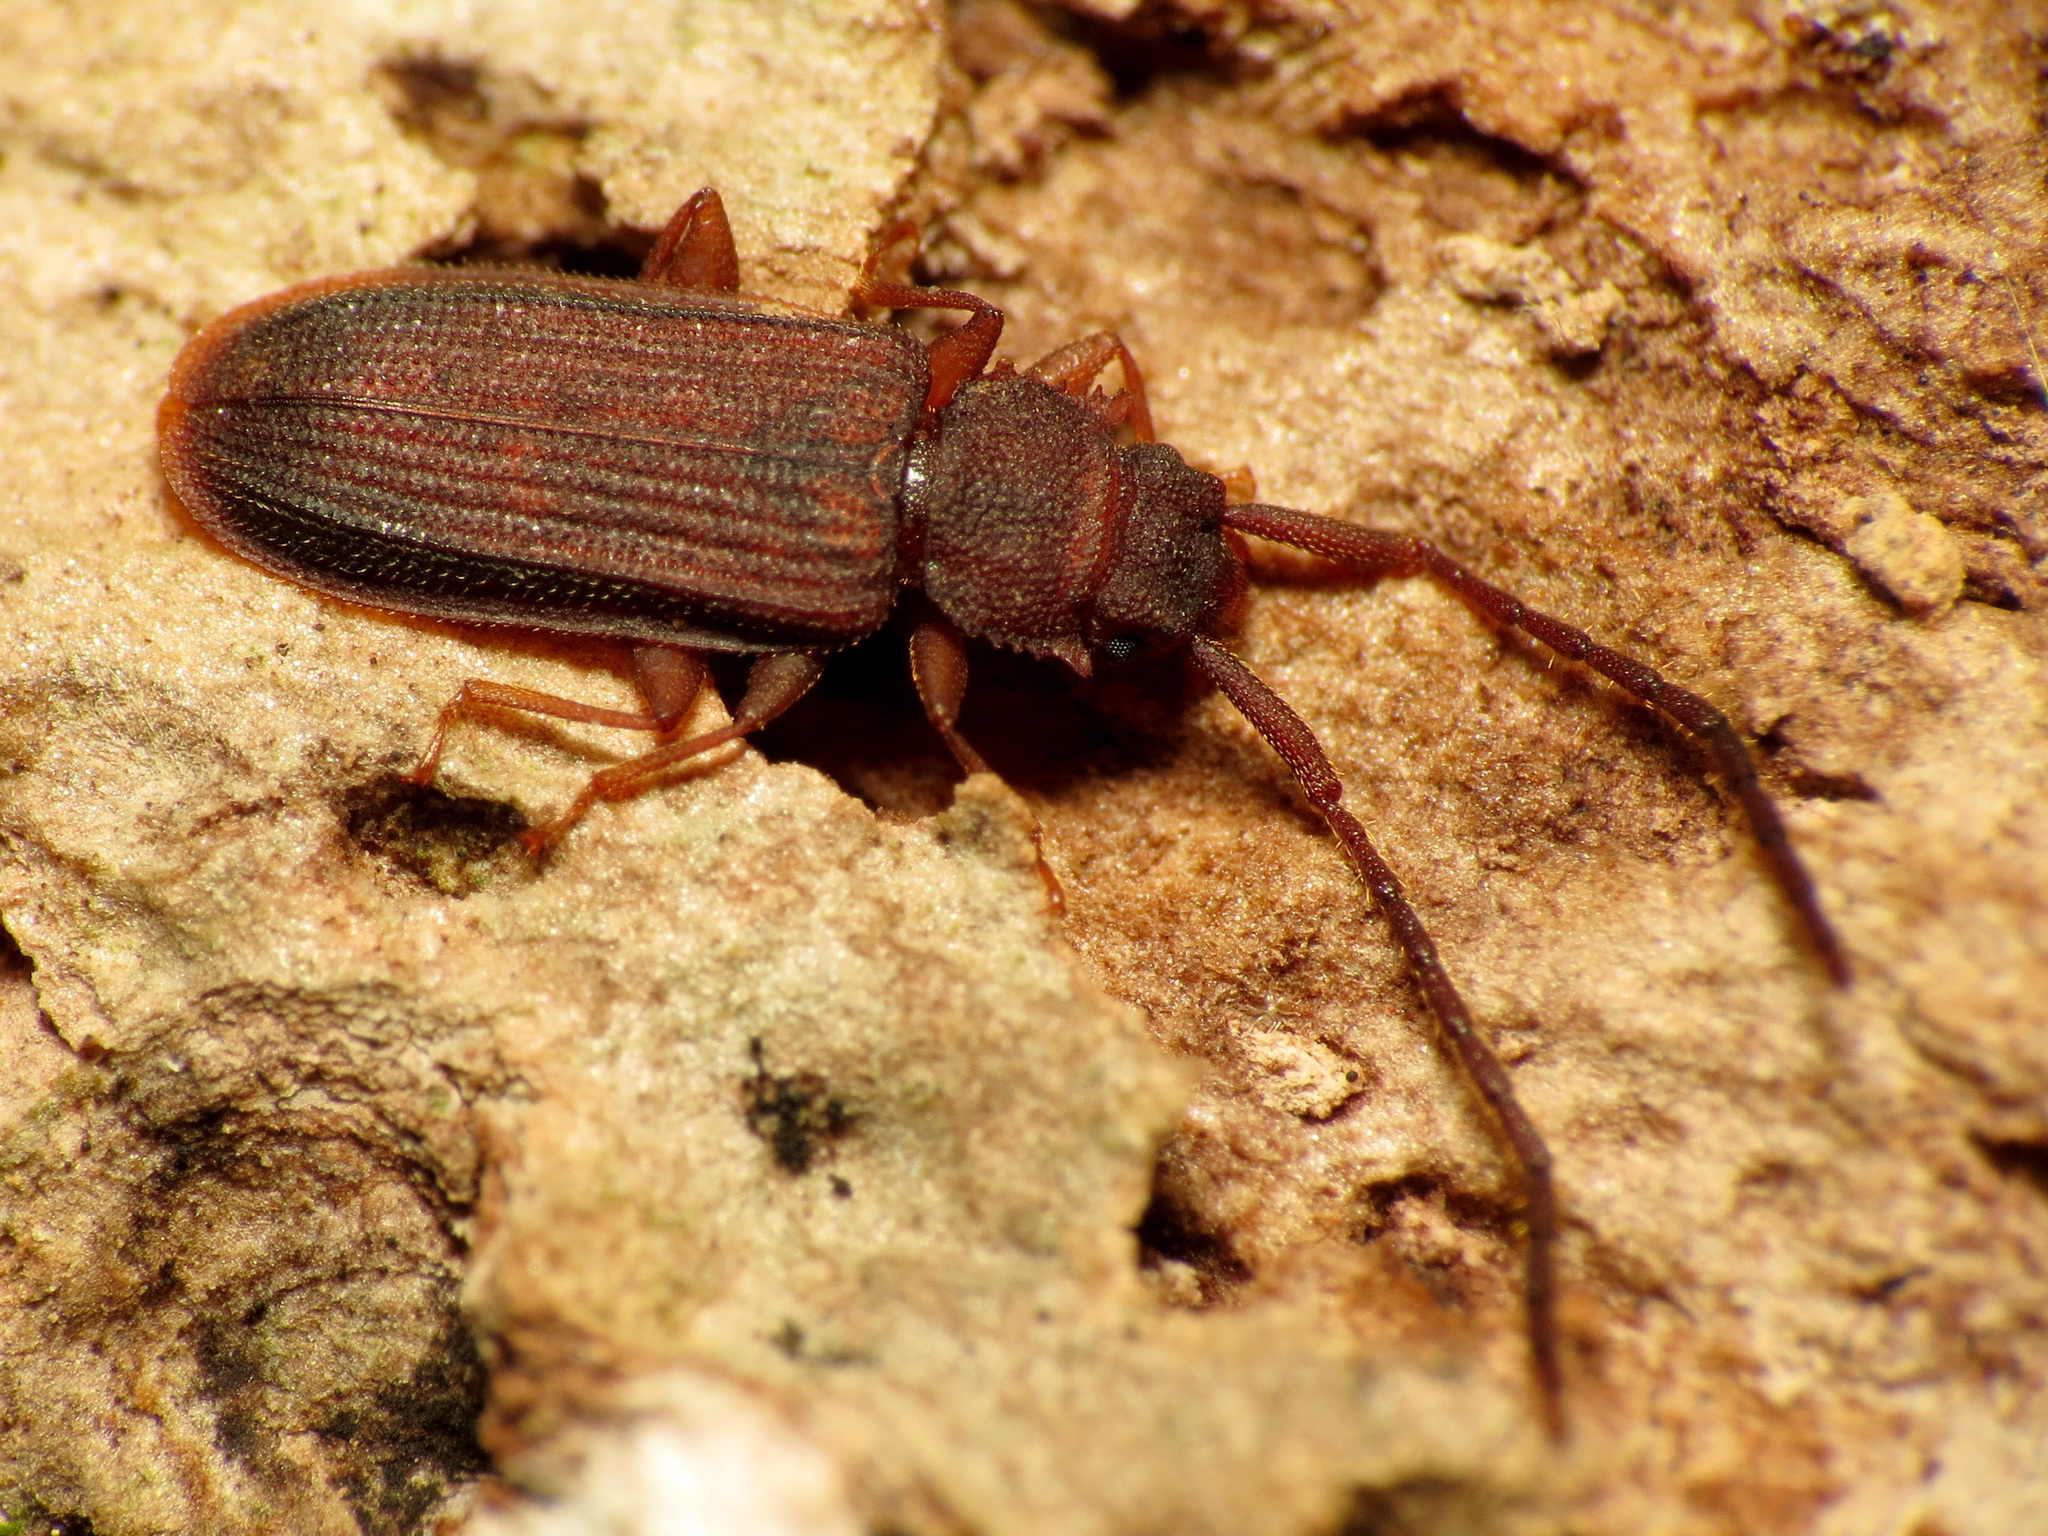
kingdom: Animalia
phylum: Arthropoda
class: Insecta
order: Coleoptera
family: Silvanidae
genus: Uleiota
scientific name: Uleiota dubia
